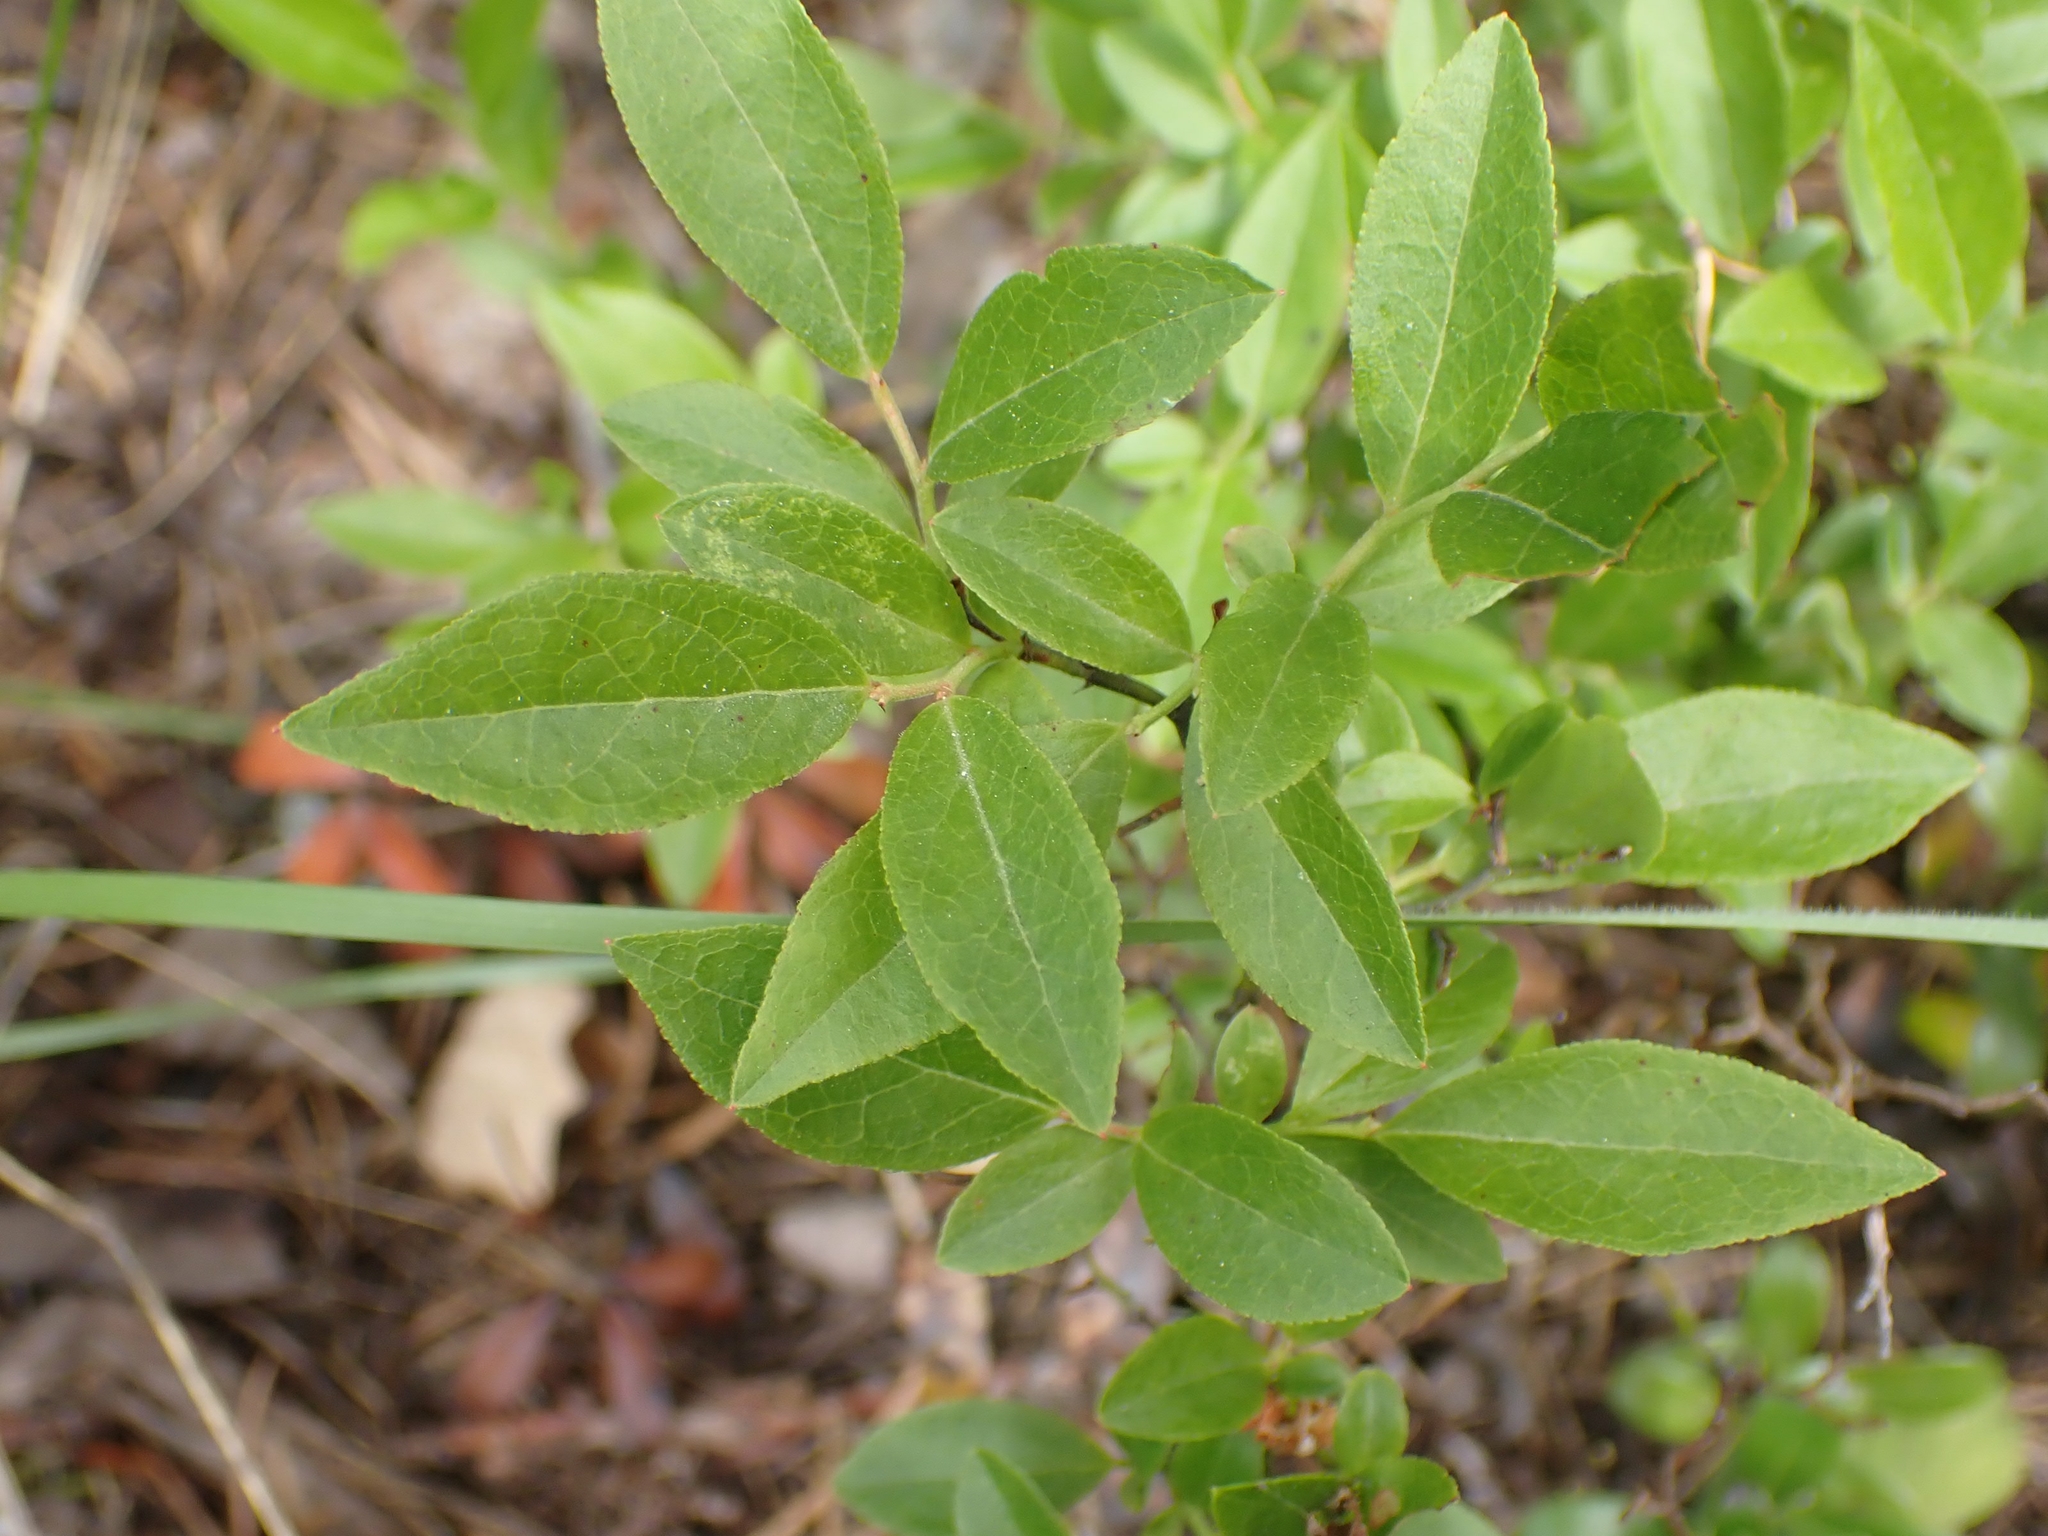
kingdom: Plantae
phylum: Tracheophyta
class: Magnoliopsida
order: Ericales
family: Ericaceae
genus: Vaccinium
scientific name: Vaccinium angustifolium
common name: Early lowbush blueberry
